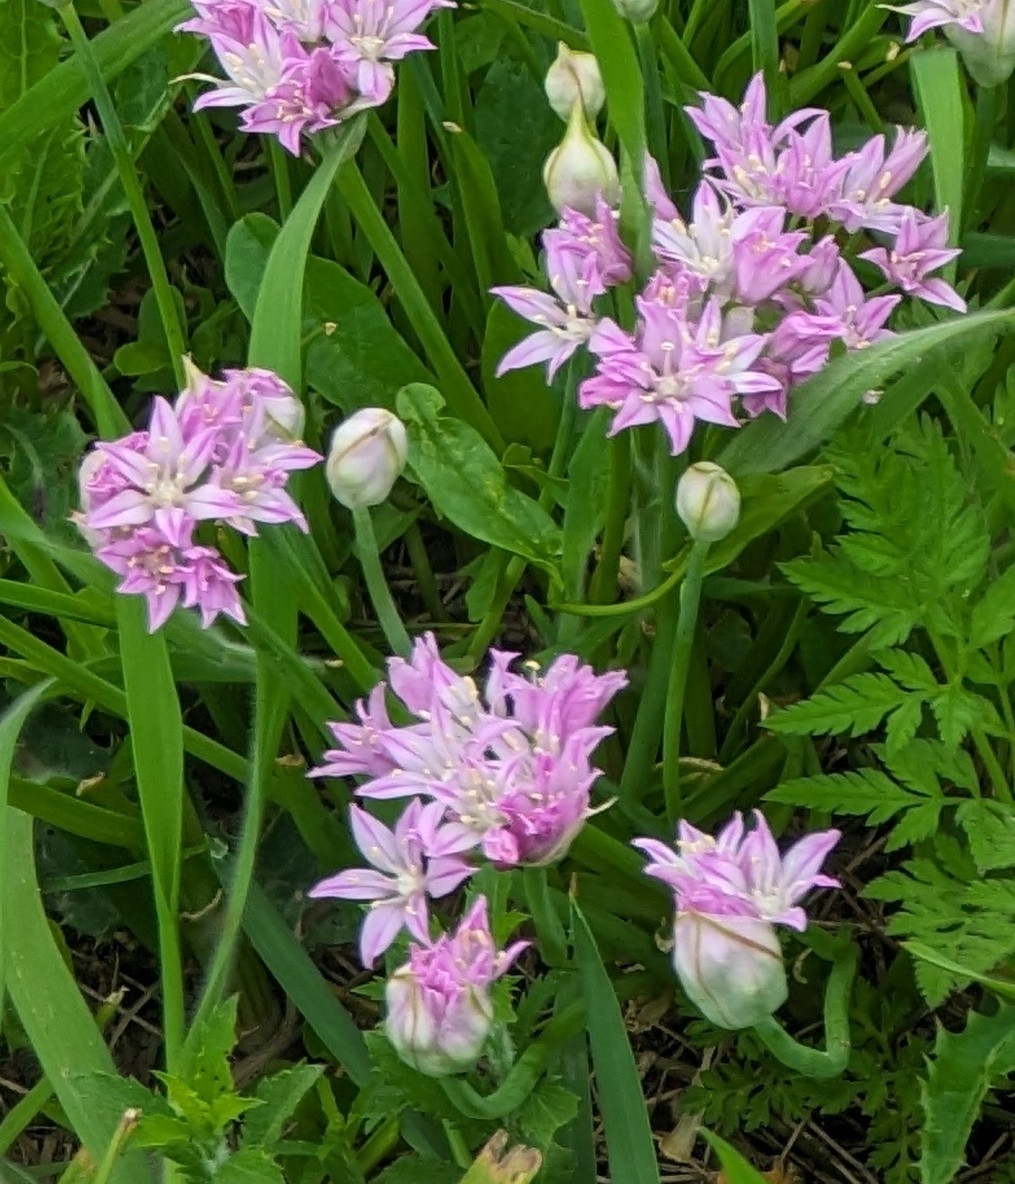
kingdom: Plantae
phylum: Tracheophyta
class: Liliopsida
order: Asparagales
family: Amaryllidaceae
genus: Allium
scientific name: Allium drummondii
